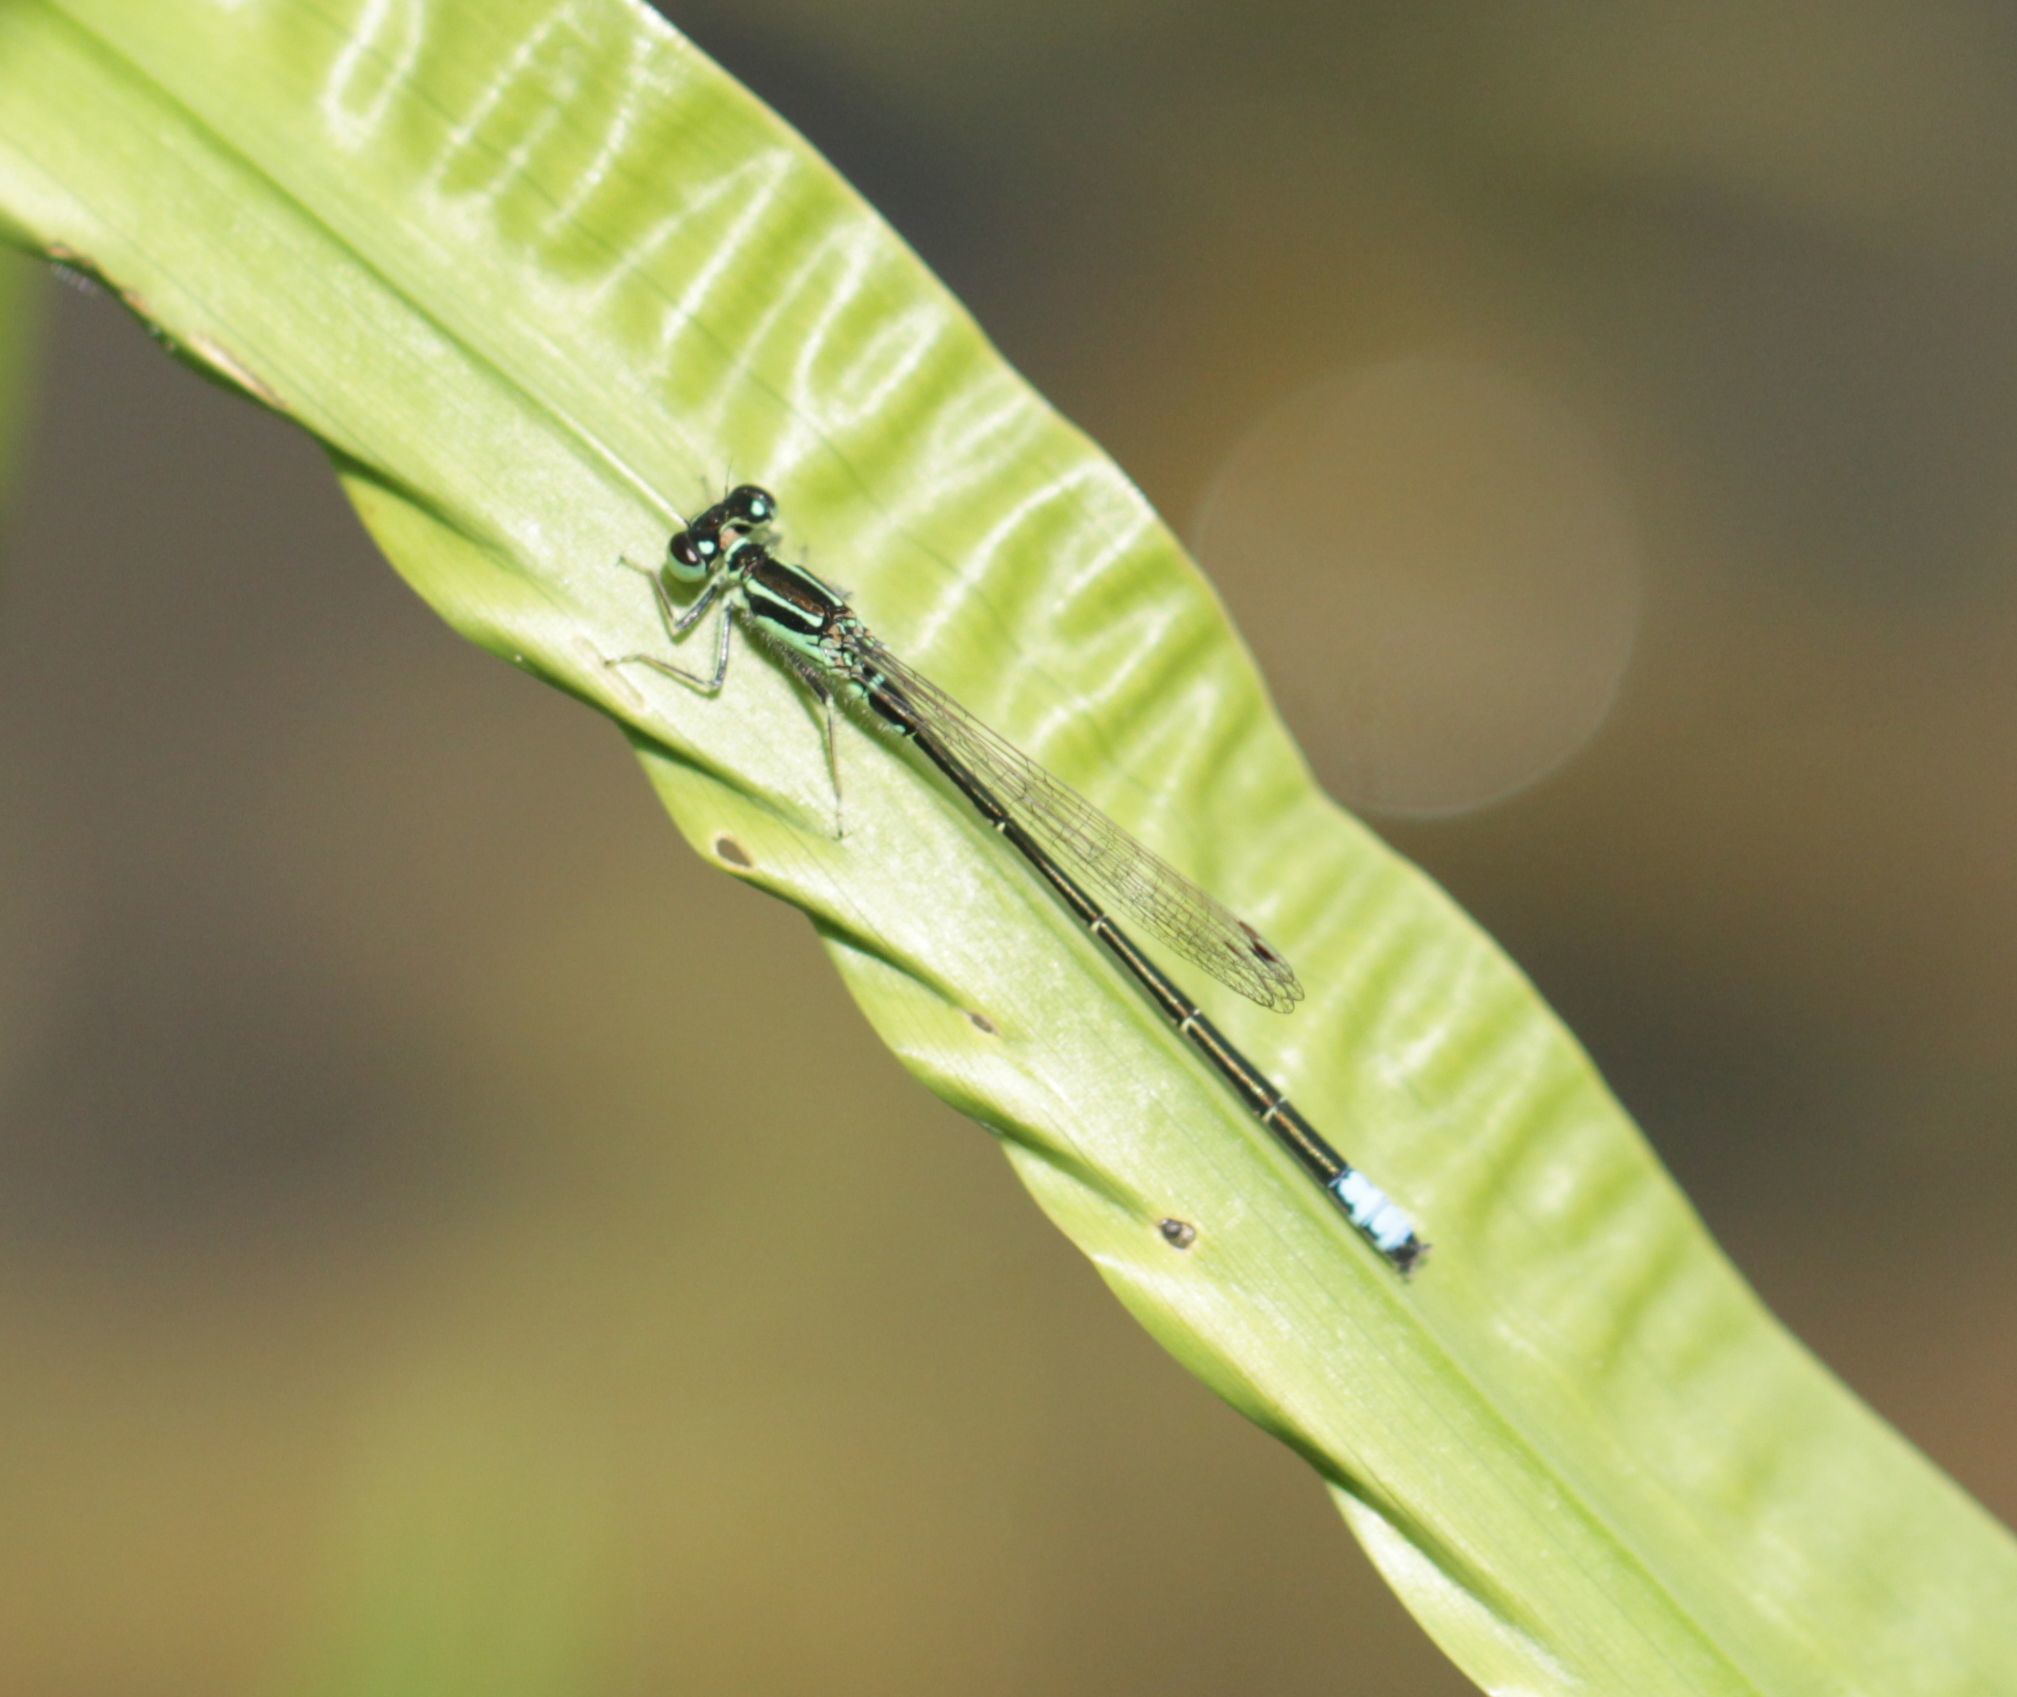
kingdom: Animalia
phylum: Arthropoda
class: Insecta
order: Odonata
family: Coenagrionidae
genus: Ischnura
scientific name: Ischnura verticalis
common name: Eastern forktail
